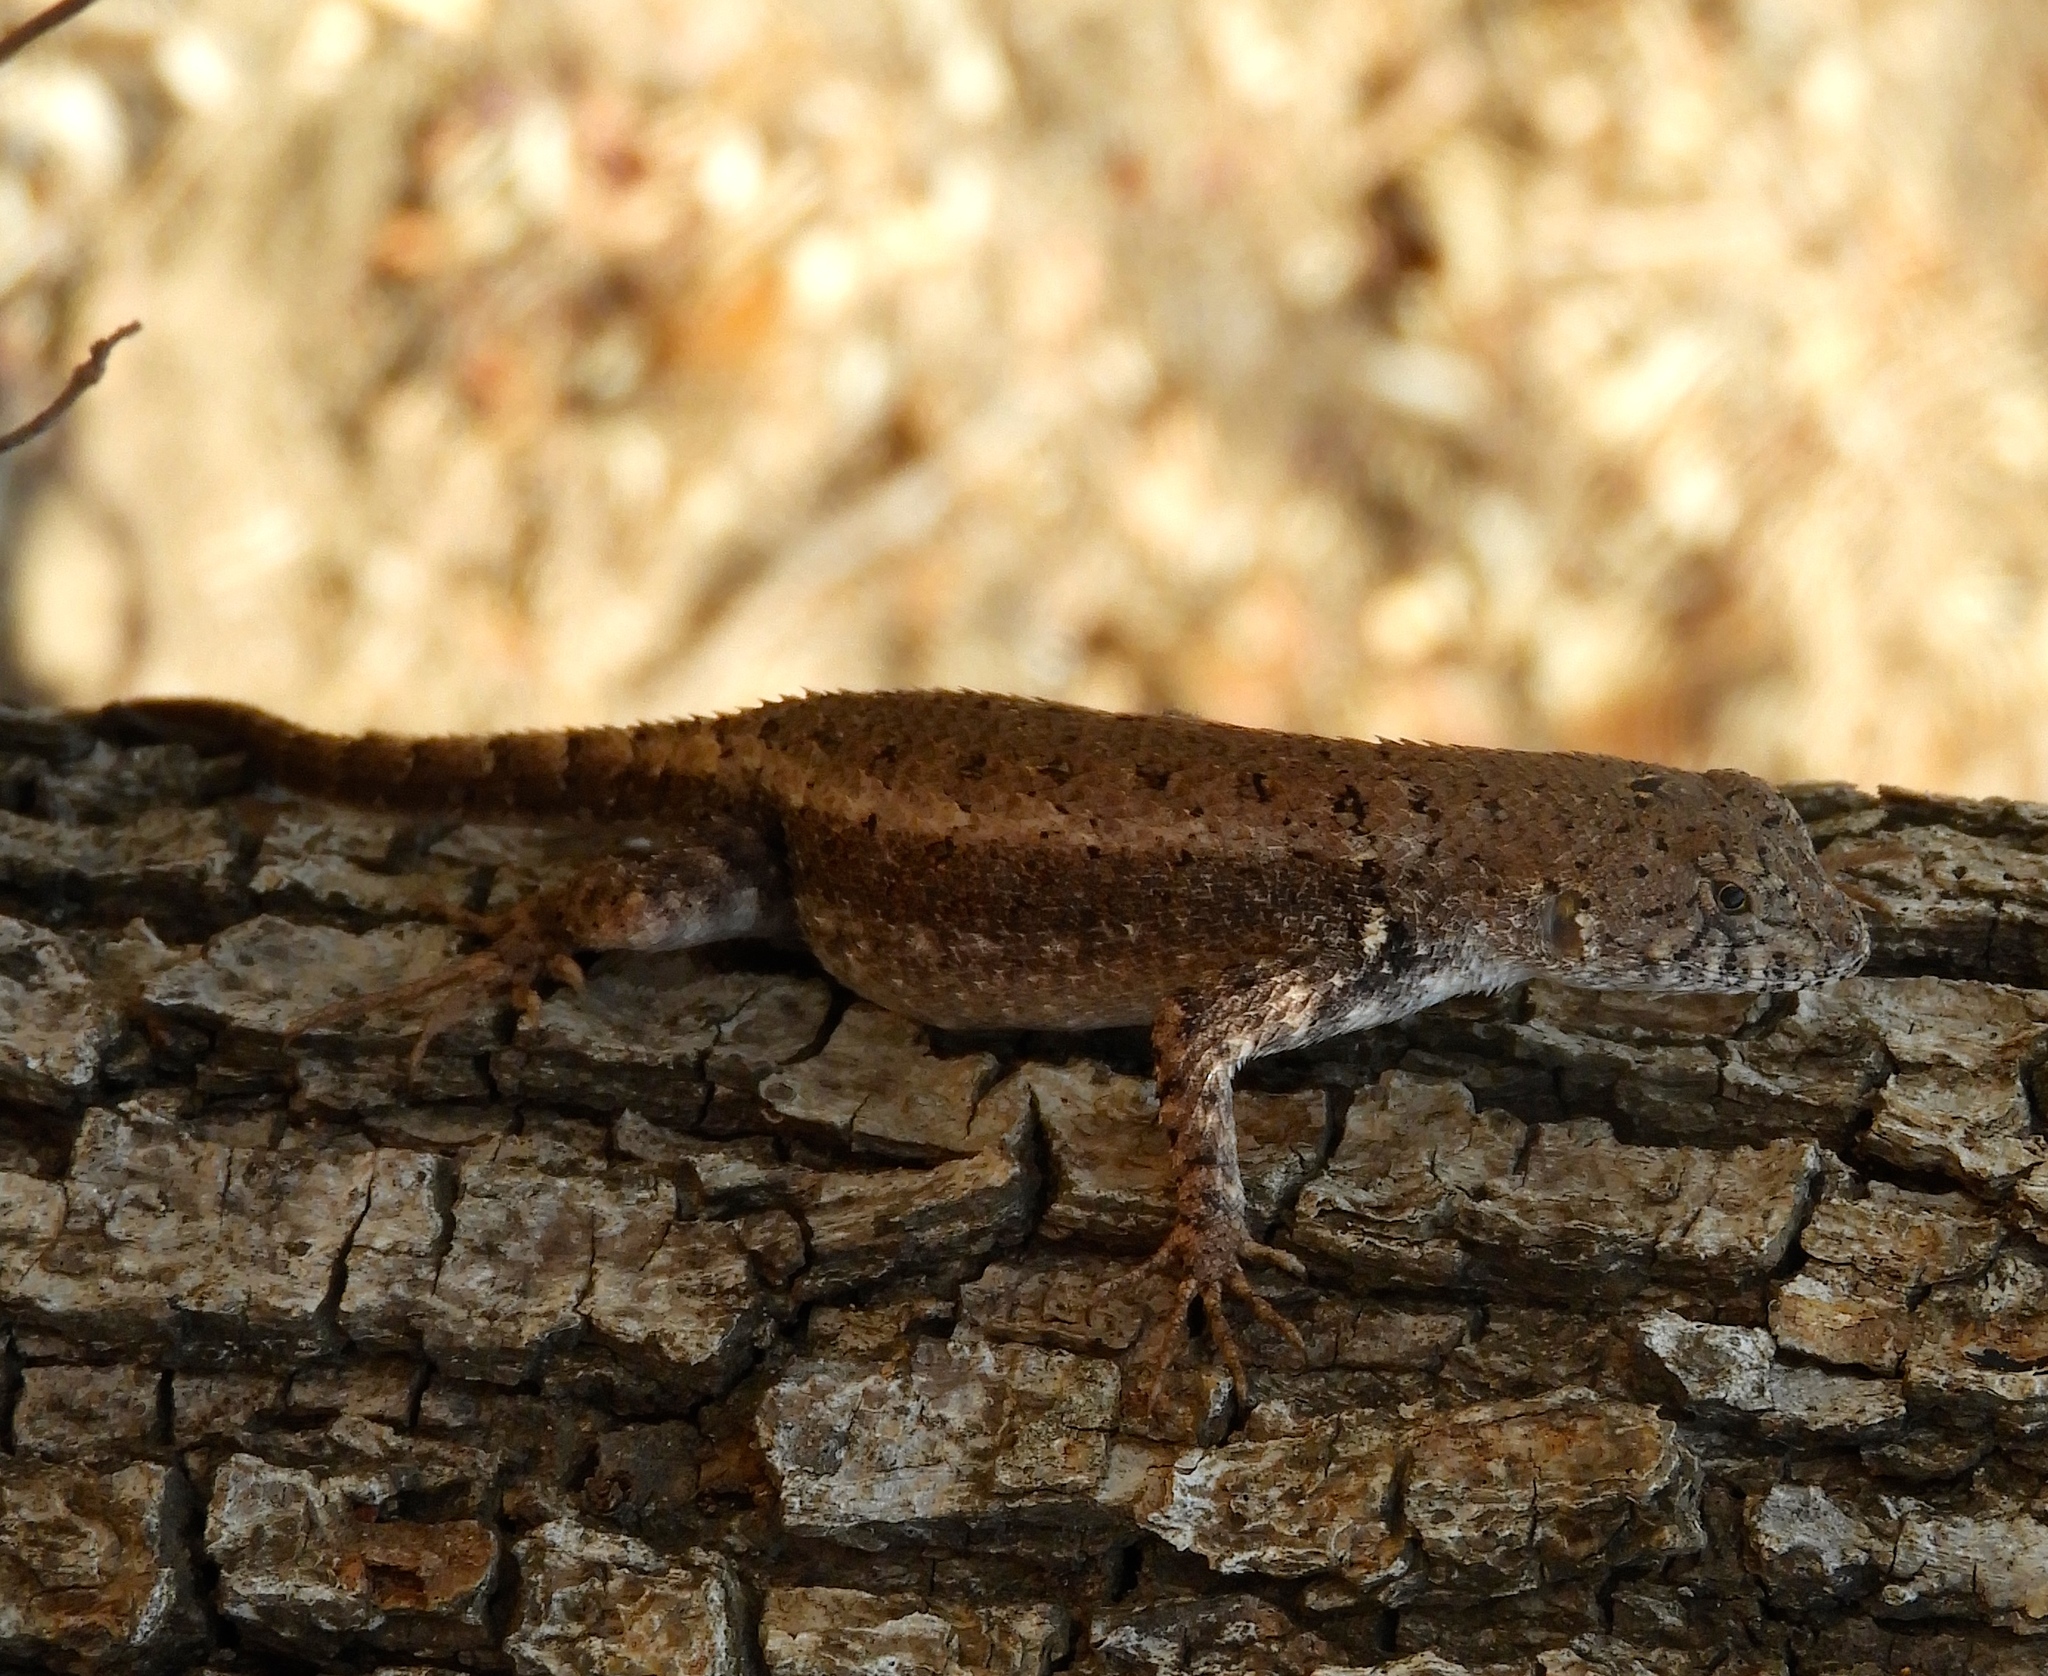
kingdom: Animalia
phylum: Chordata
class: Squamata
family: Phrynosomatidae
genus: Sceloporus
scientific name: Sceloporus nelsoni
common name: Nelson's spiny lizard
